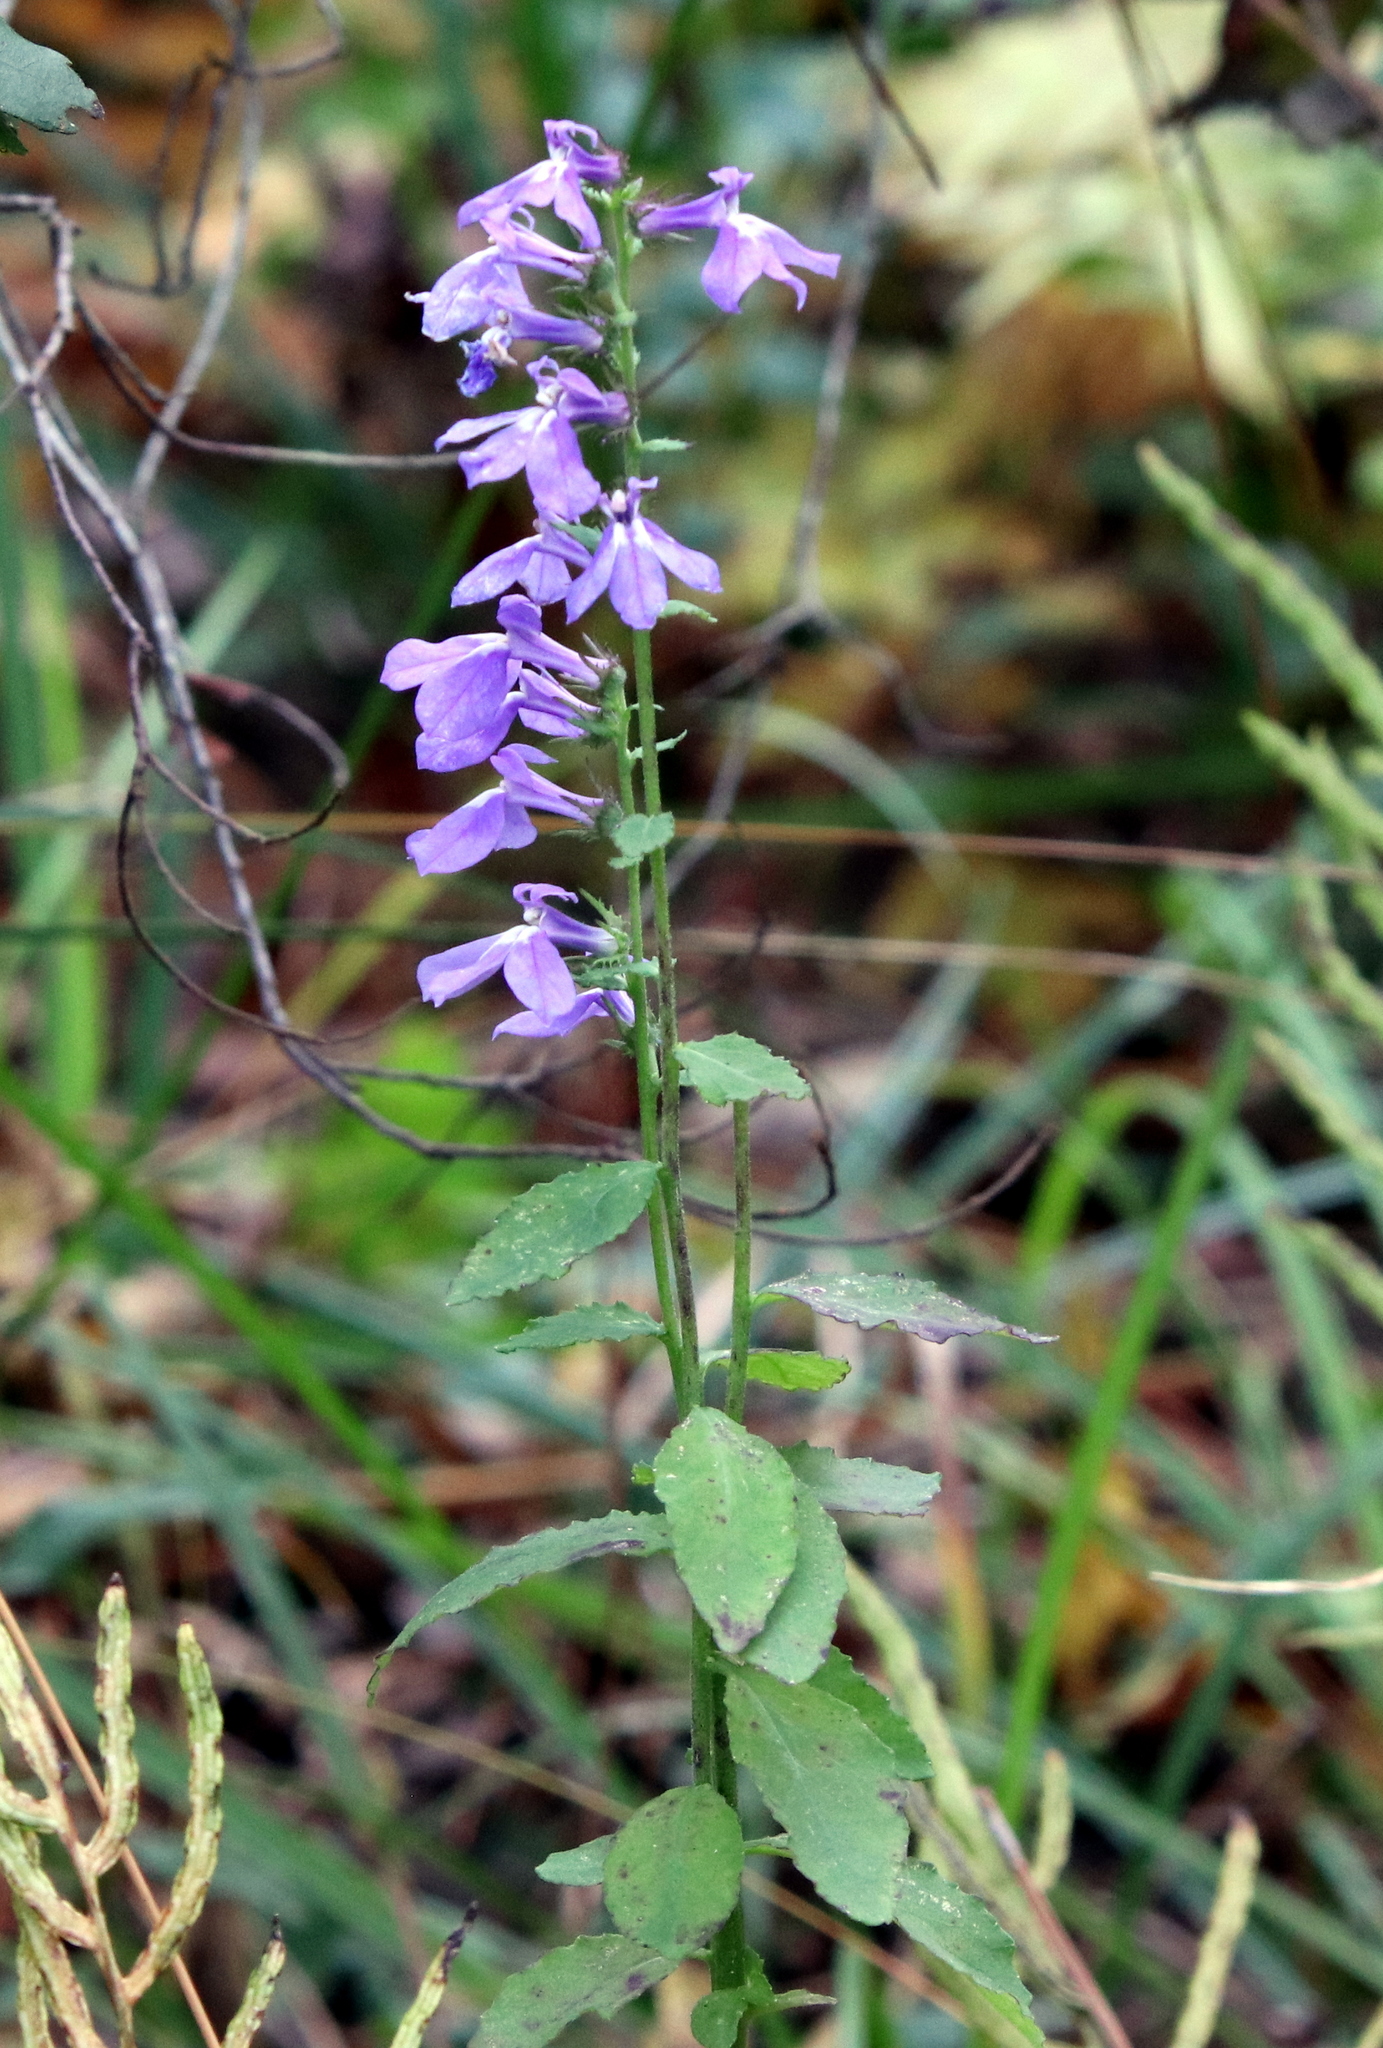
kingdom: Plantae
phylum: Tracheophyta
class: Magnoliopsida
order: Asterales
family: Campanulaceae
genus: Lobelia
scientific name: Lobelia rogersii
